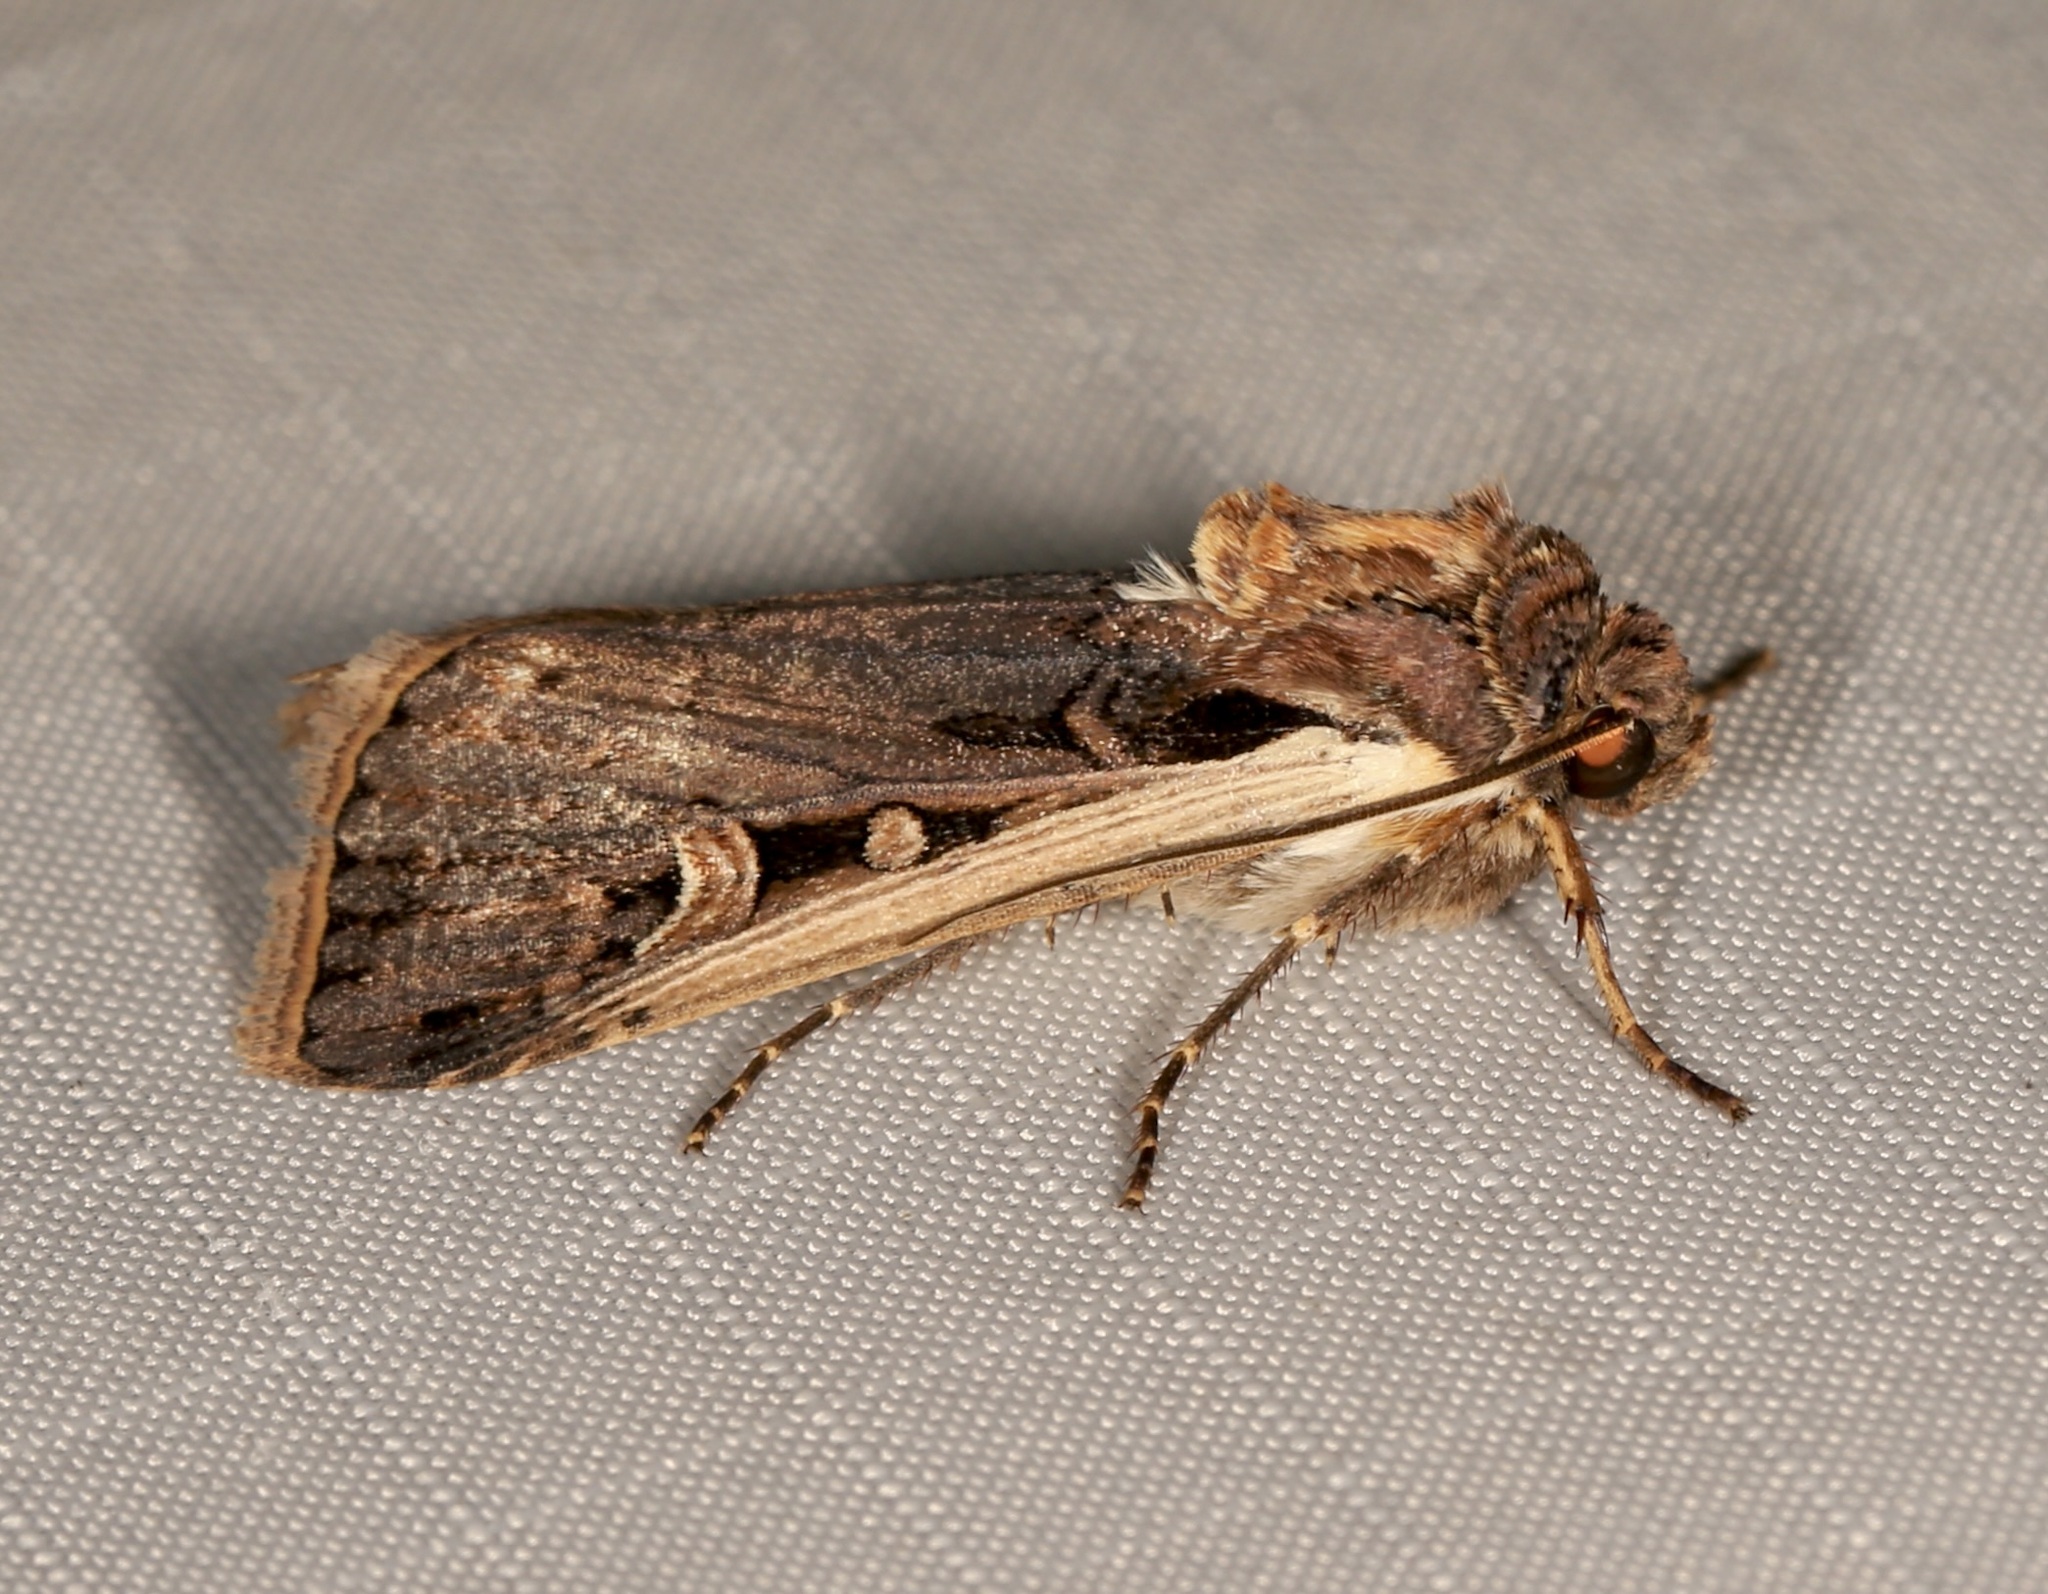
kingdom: Animalia
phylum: Arthropoda
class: Insecta
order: Lepidoptera
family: Noctuidae
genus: Striacosta
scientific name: Striacosta albicosta
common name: Western bean cutworm moth
